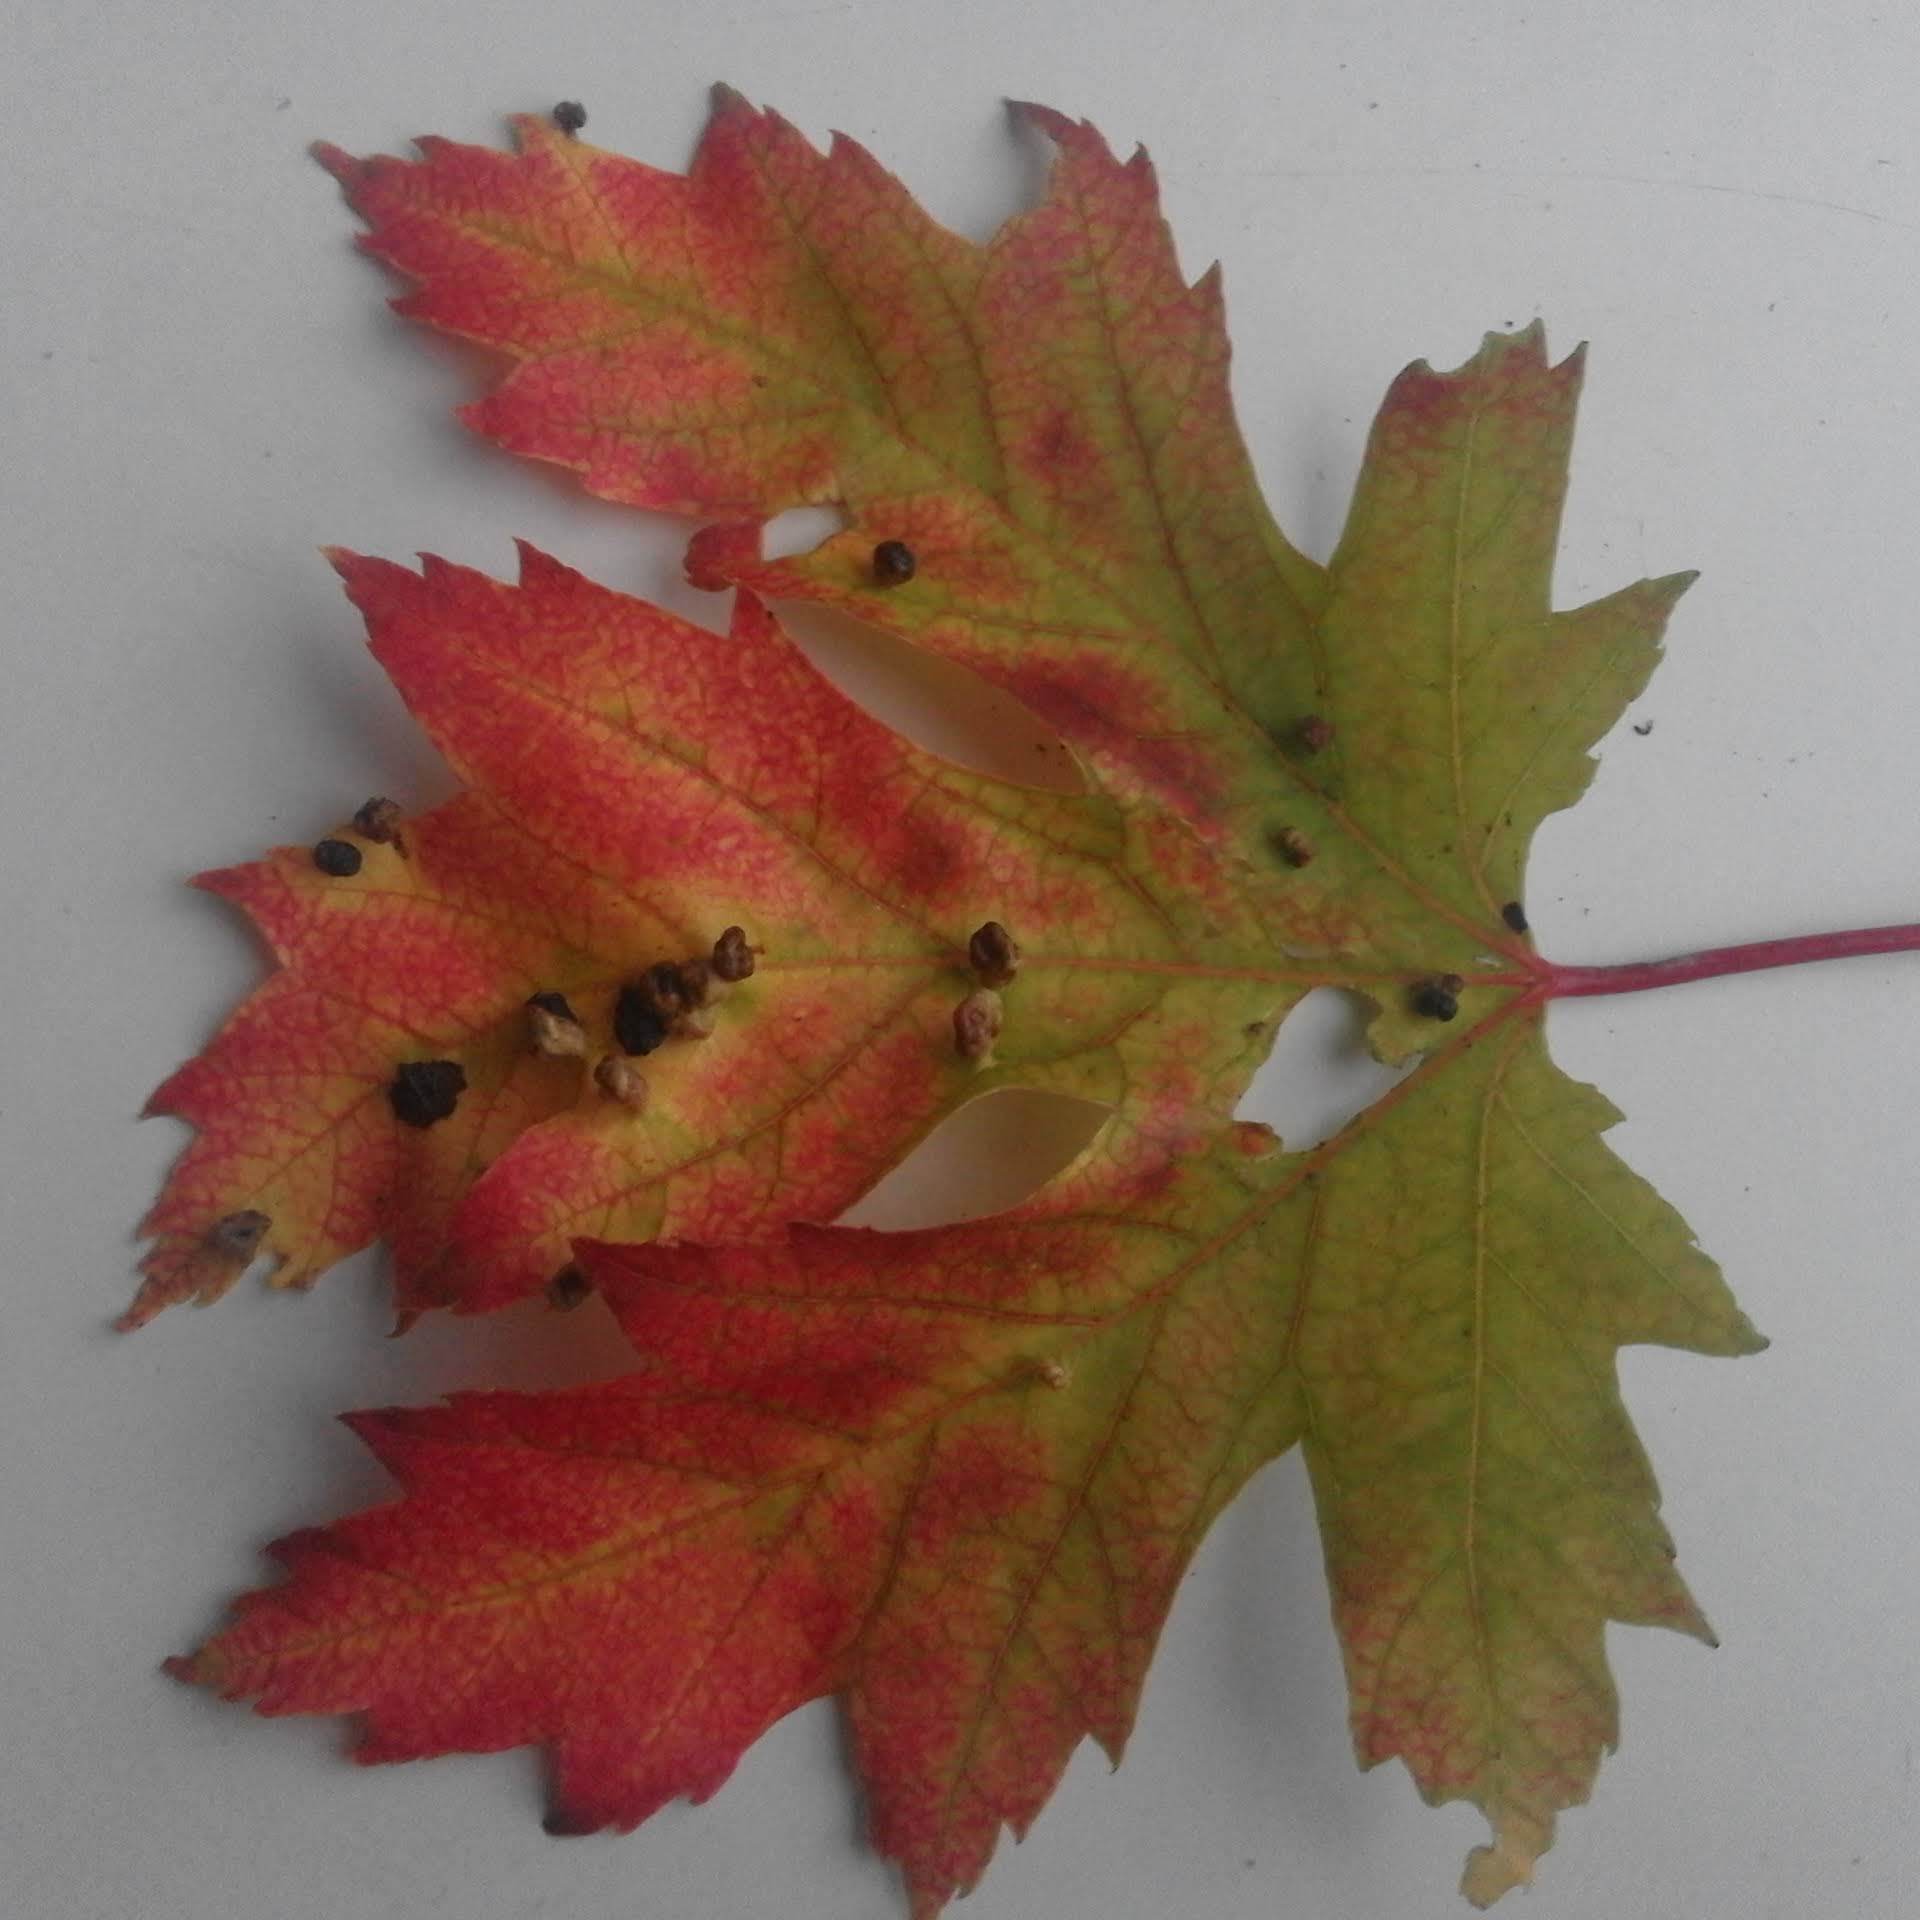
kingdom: Animalia
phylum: Arthropoda
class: Arachnida
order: Trombidiformes
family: Eriophyidae
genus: Vasates
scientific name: Vasates quadripedes
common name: Maple bladder gall mite
